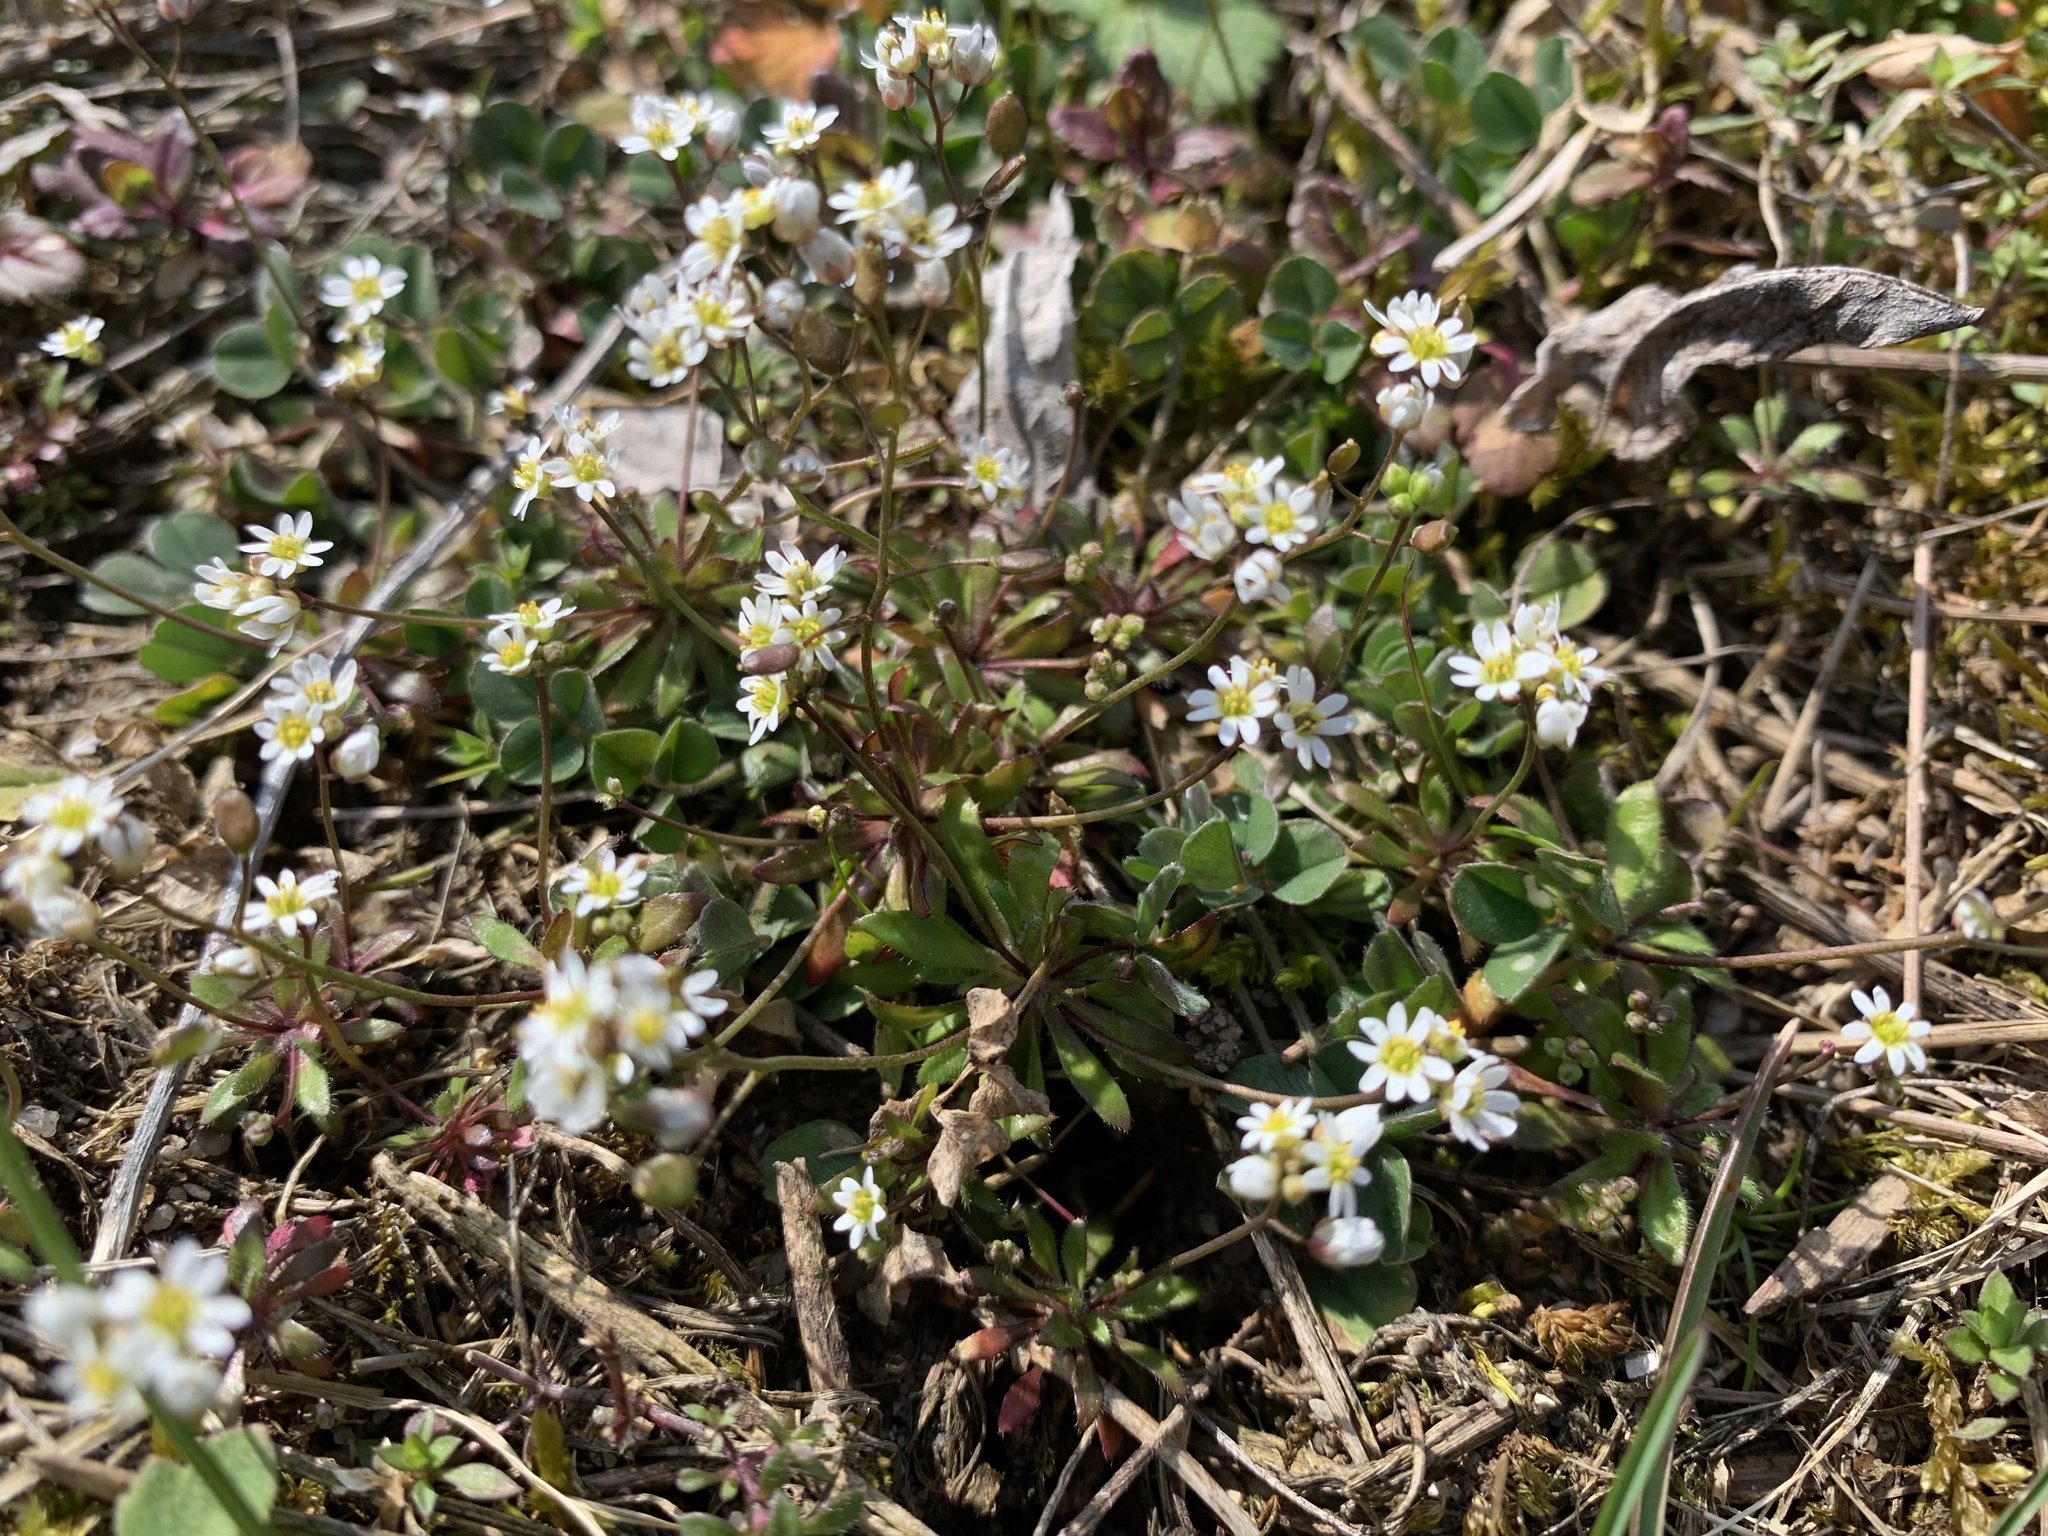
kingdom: Plantae
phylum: Tracheophyta
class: Magnoliopsida
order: Brassicales
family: Brassicaceae
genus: Draba
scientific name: Draba verna
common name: Spring draba
